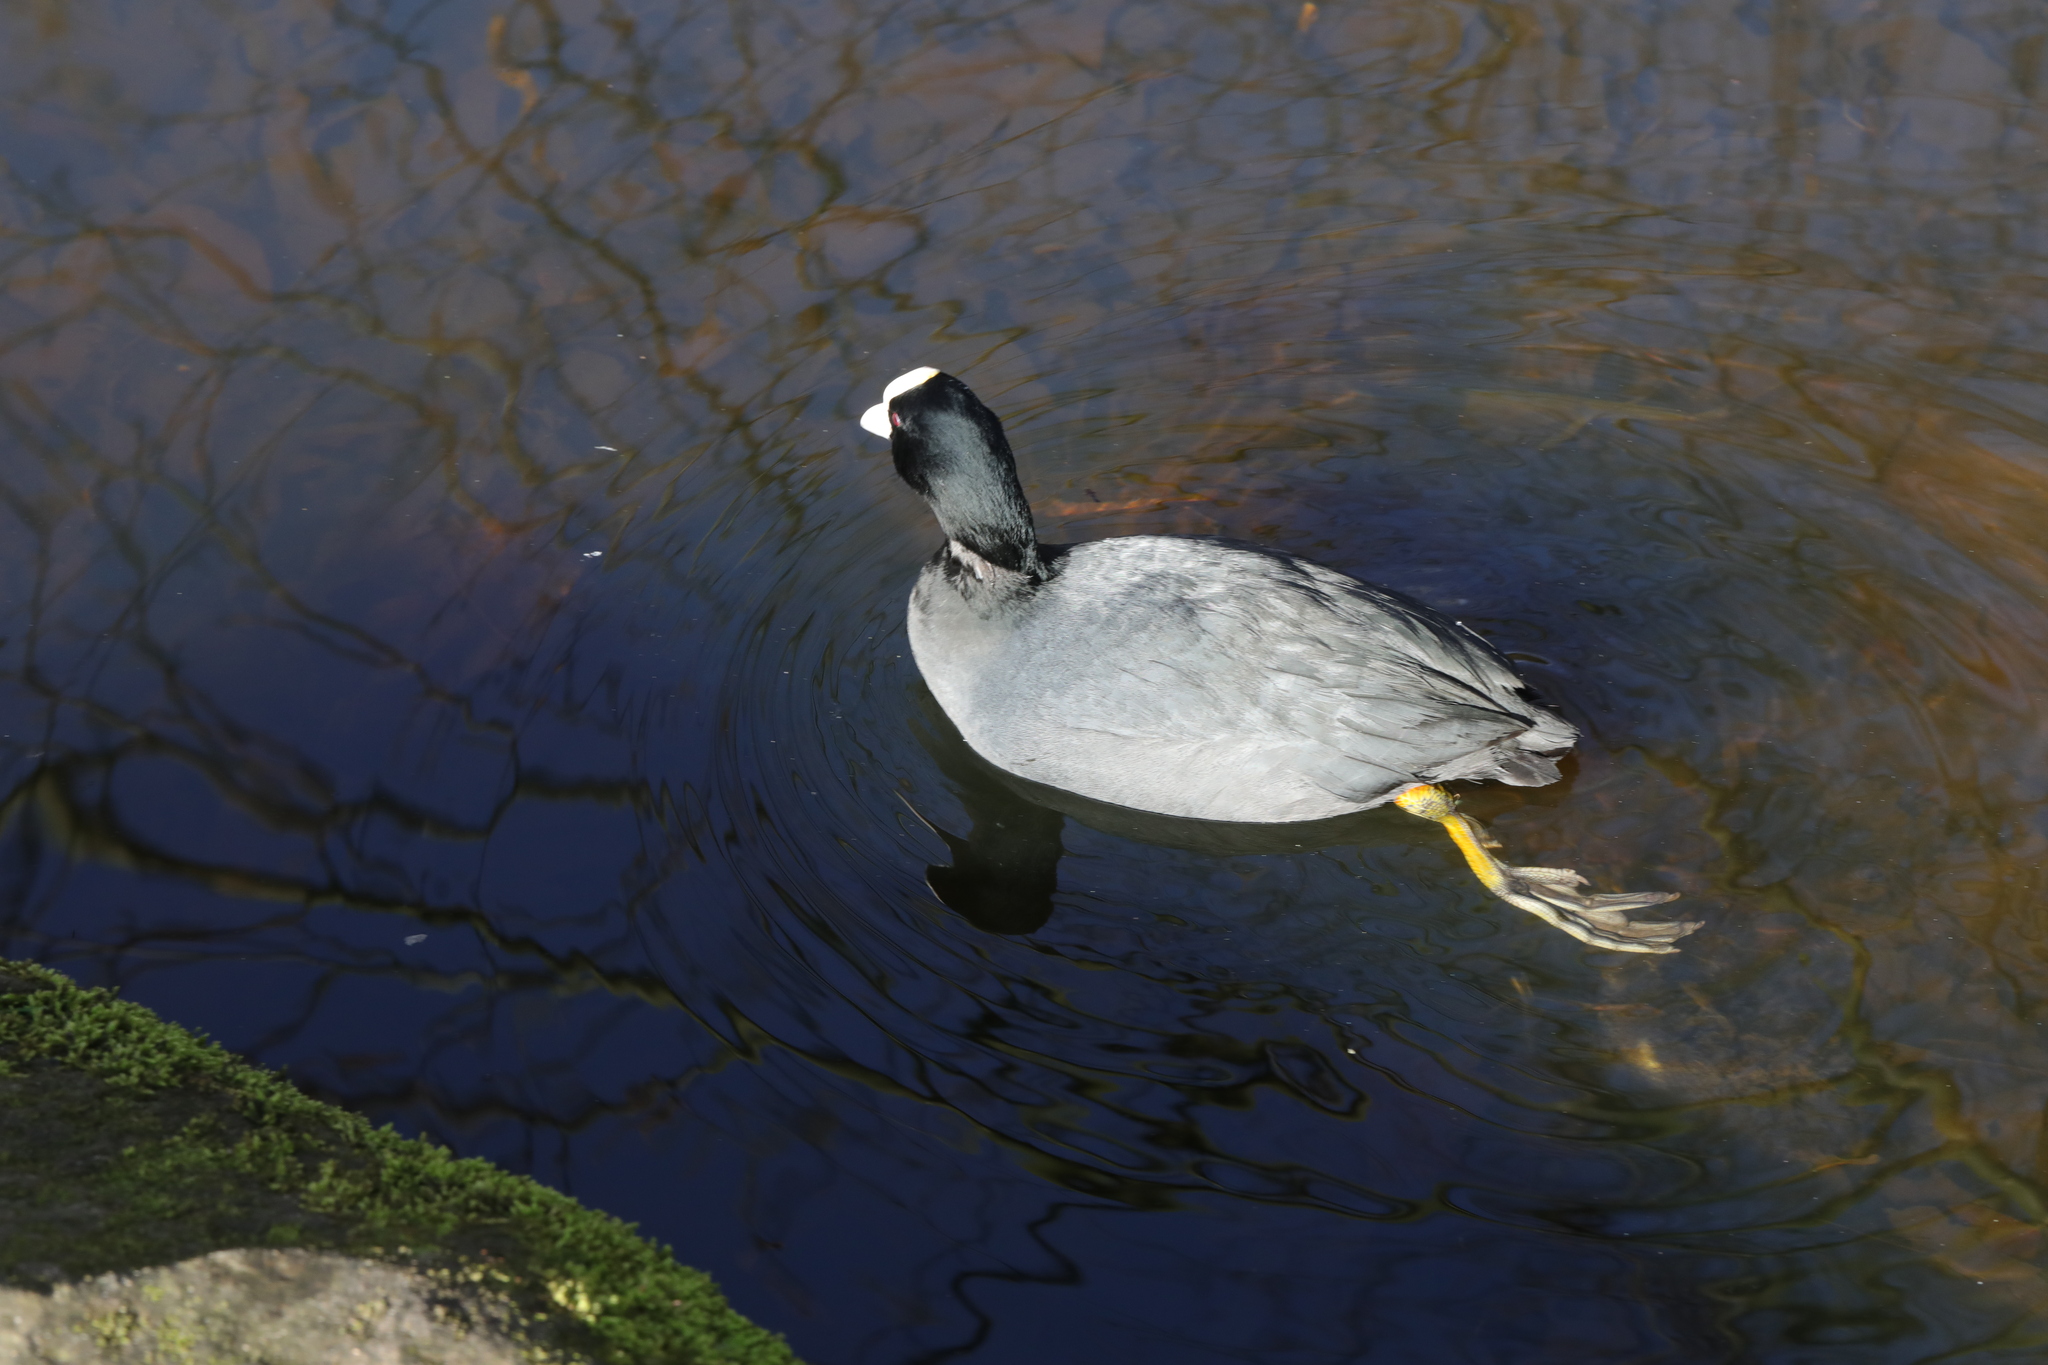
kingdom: Animalia
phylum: Chordata
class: Aves
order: Gruiformes
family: Rallidae
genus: Fulica
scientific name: Fulica atra
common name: Eurasian coot
